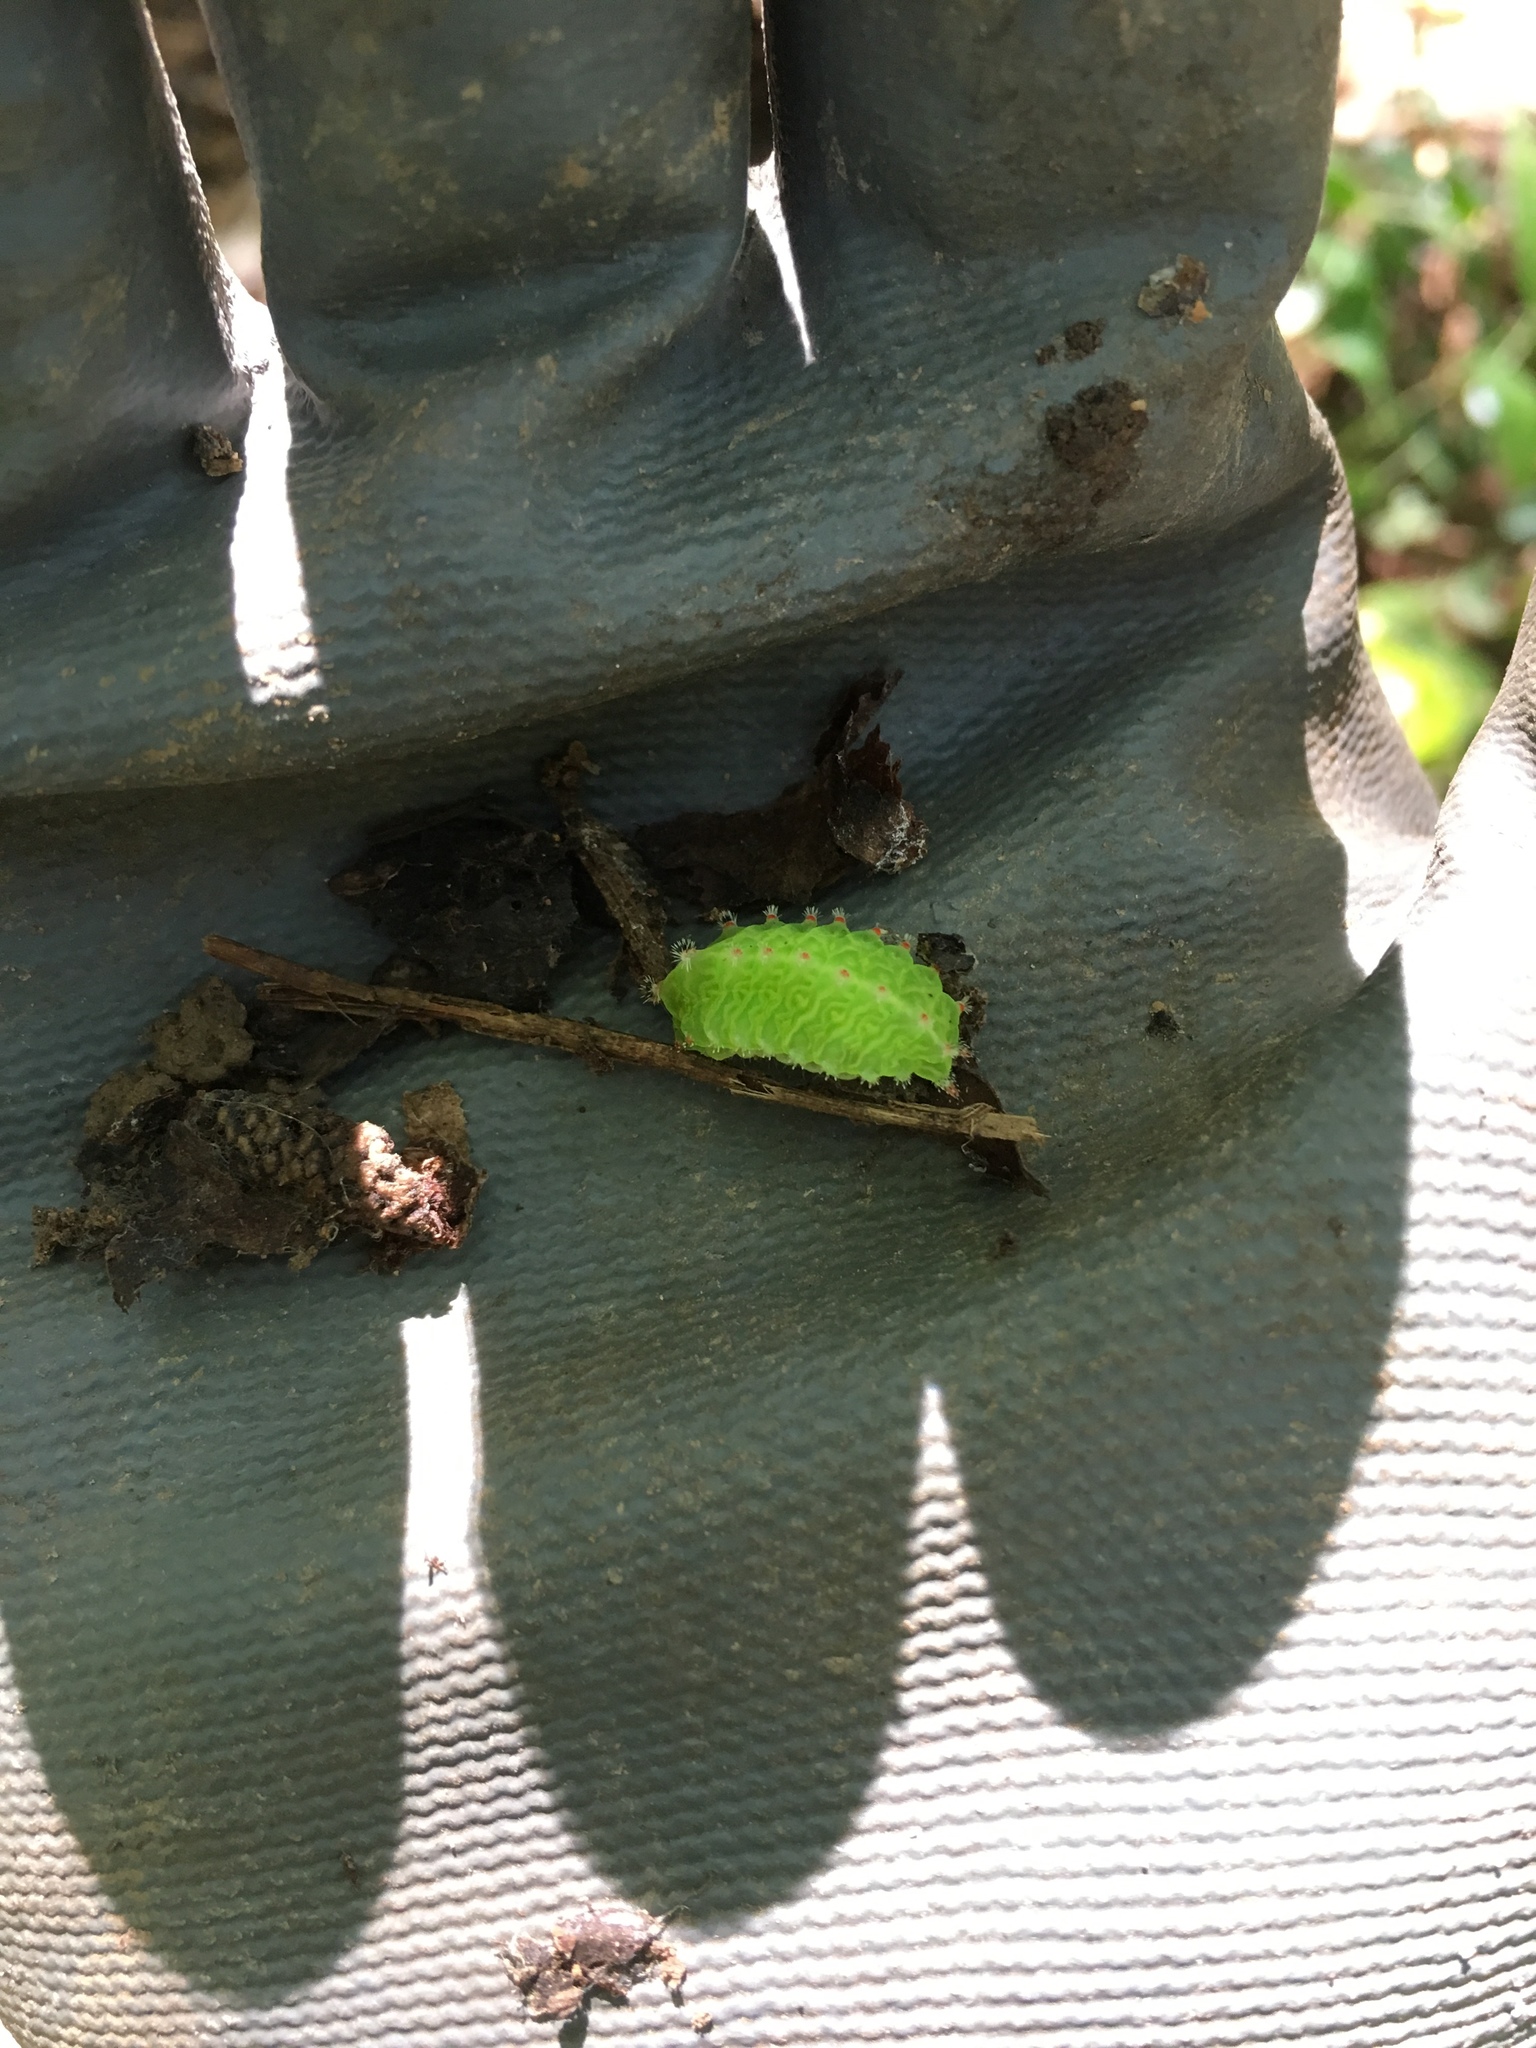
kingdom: Animalia
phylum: Arthropoda
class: Insecta
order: Lepidoptera
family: Limacodidae
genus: Natada
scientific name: Natada nasoni
